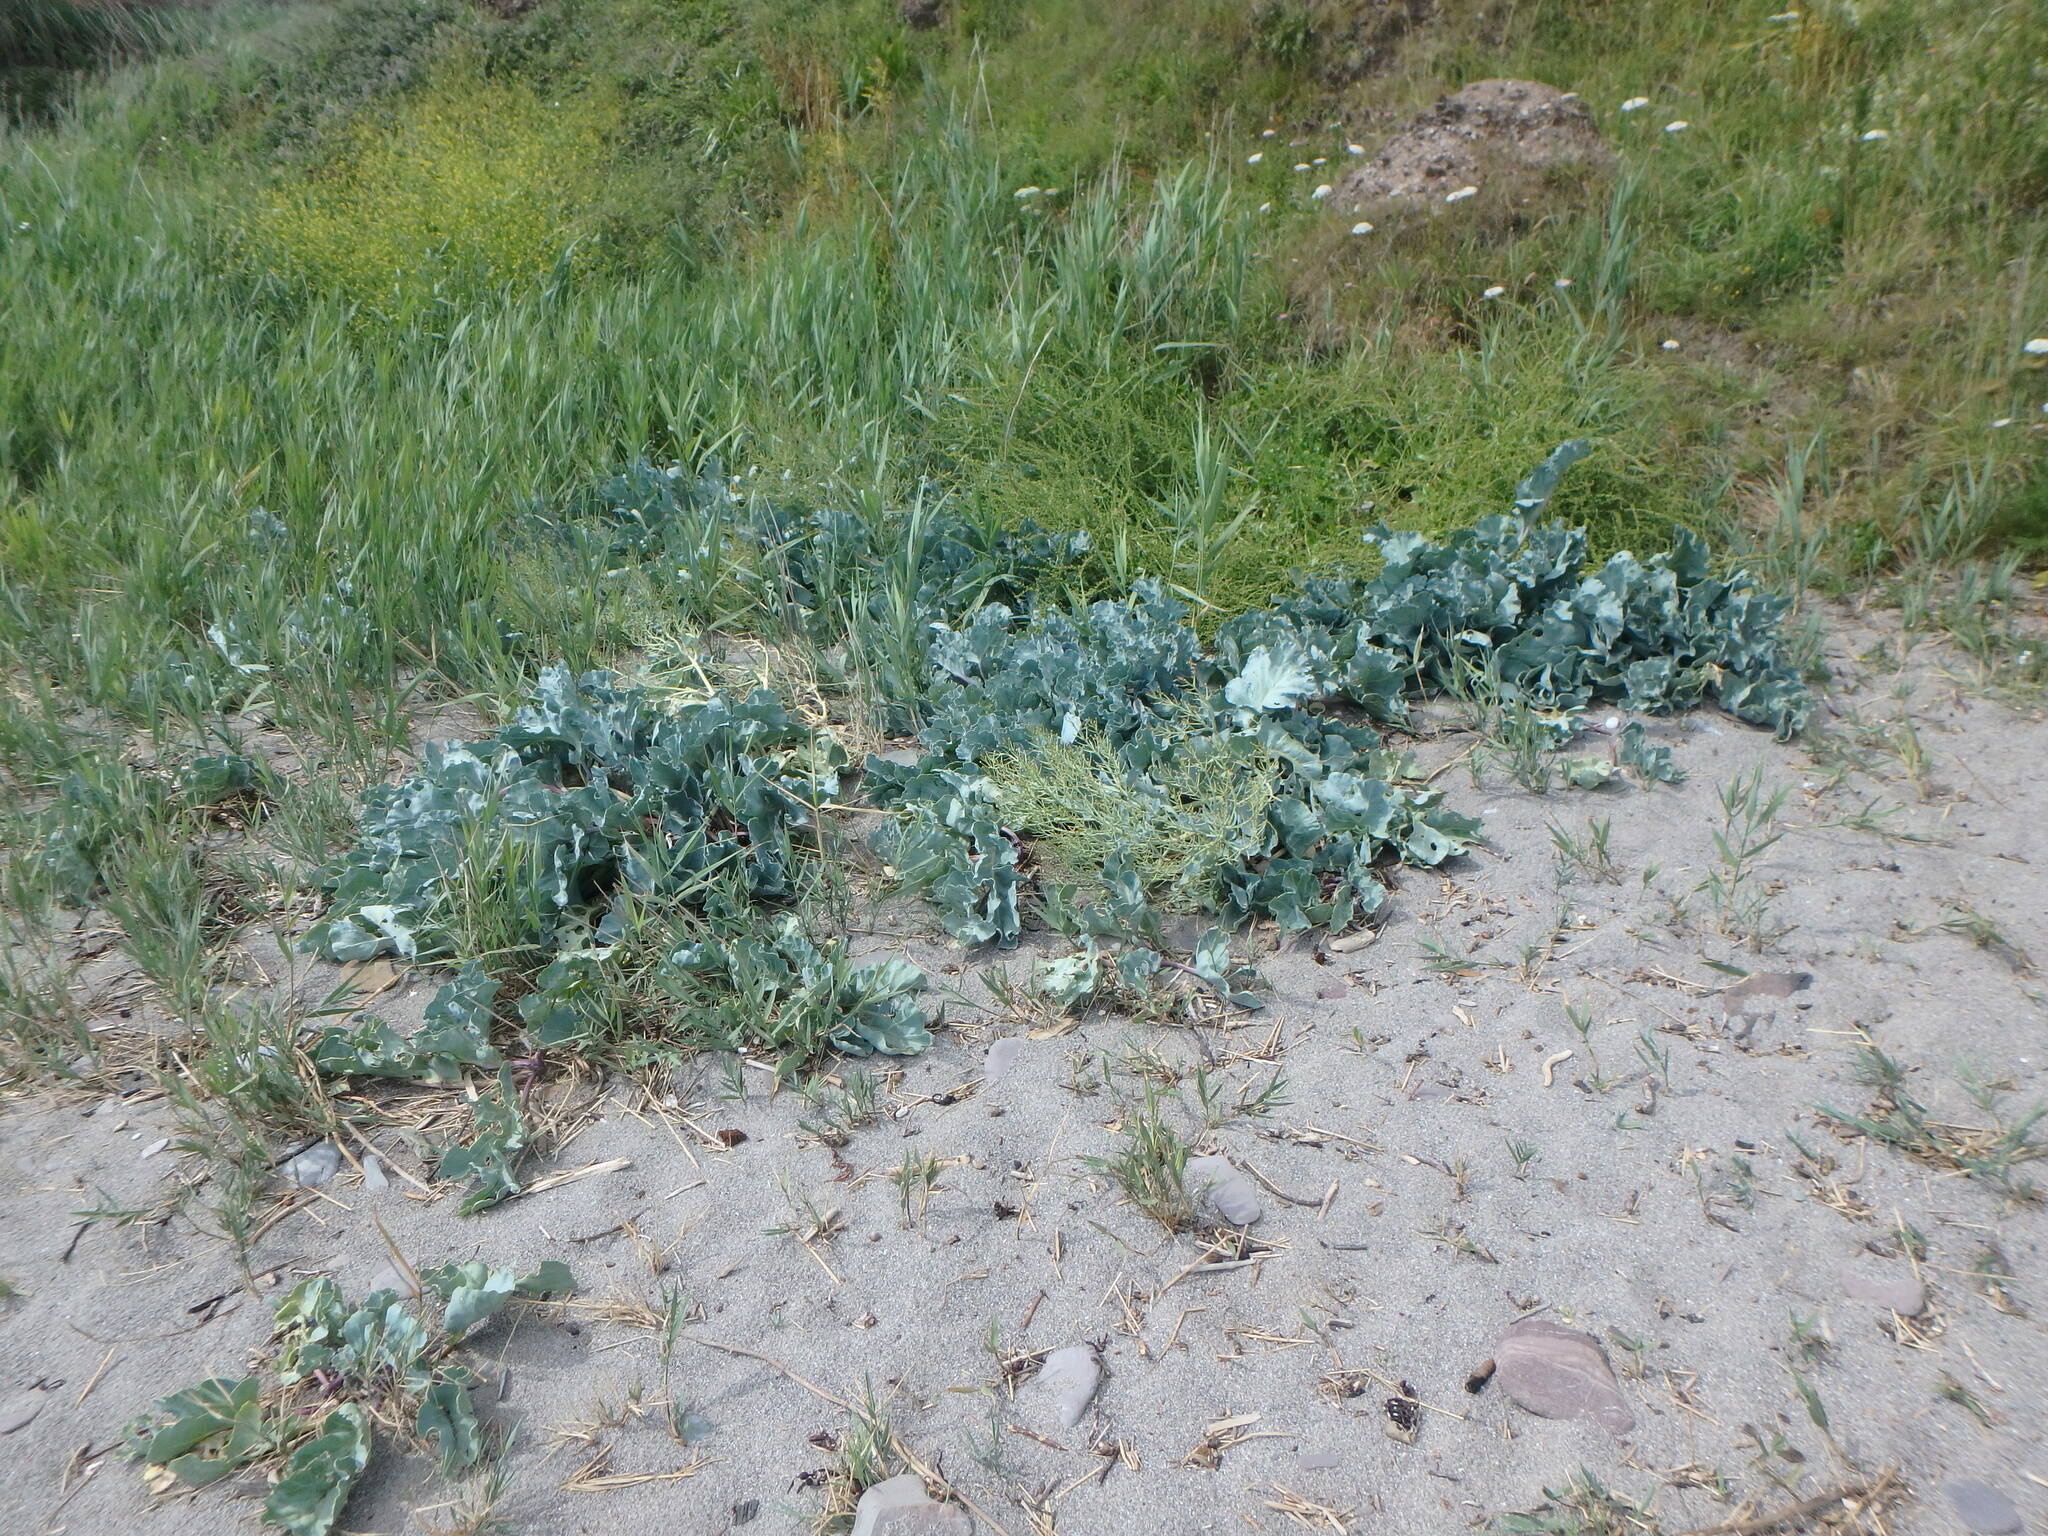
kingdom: Plantae
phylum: Tracheophyta
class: Magnoliopsida
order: Brassicales
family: Brassicaceae
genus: Crambe
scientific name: Crambe maritima
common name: Sea-kale
